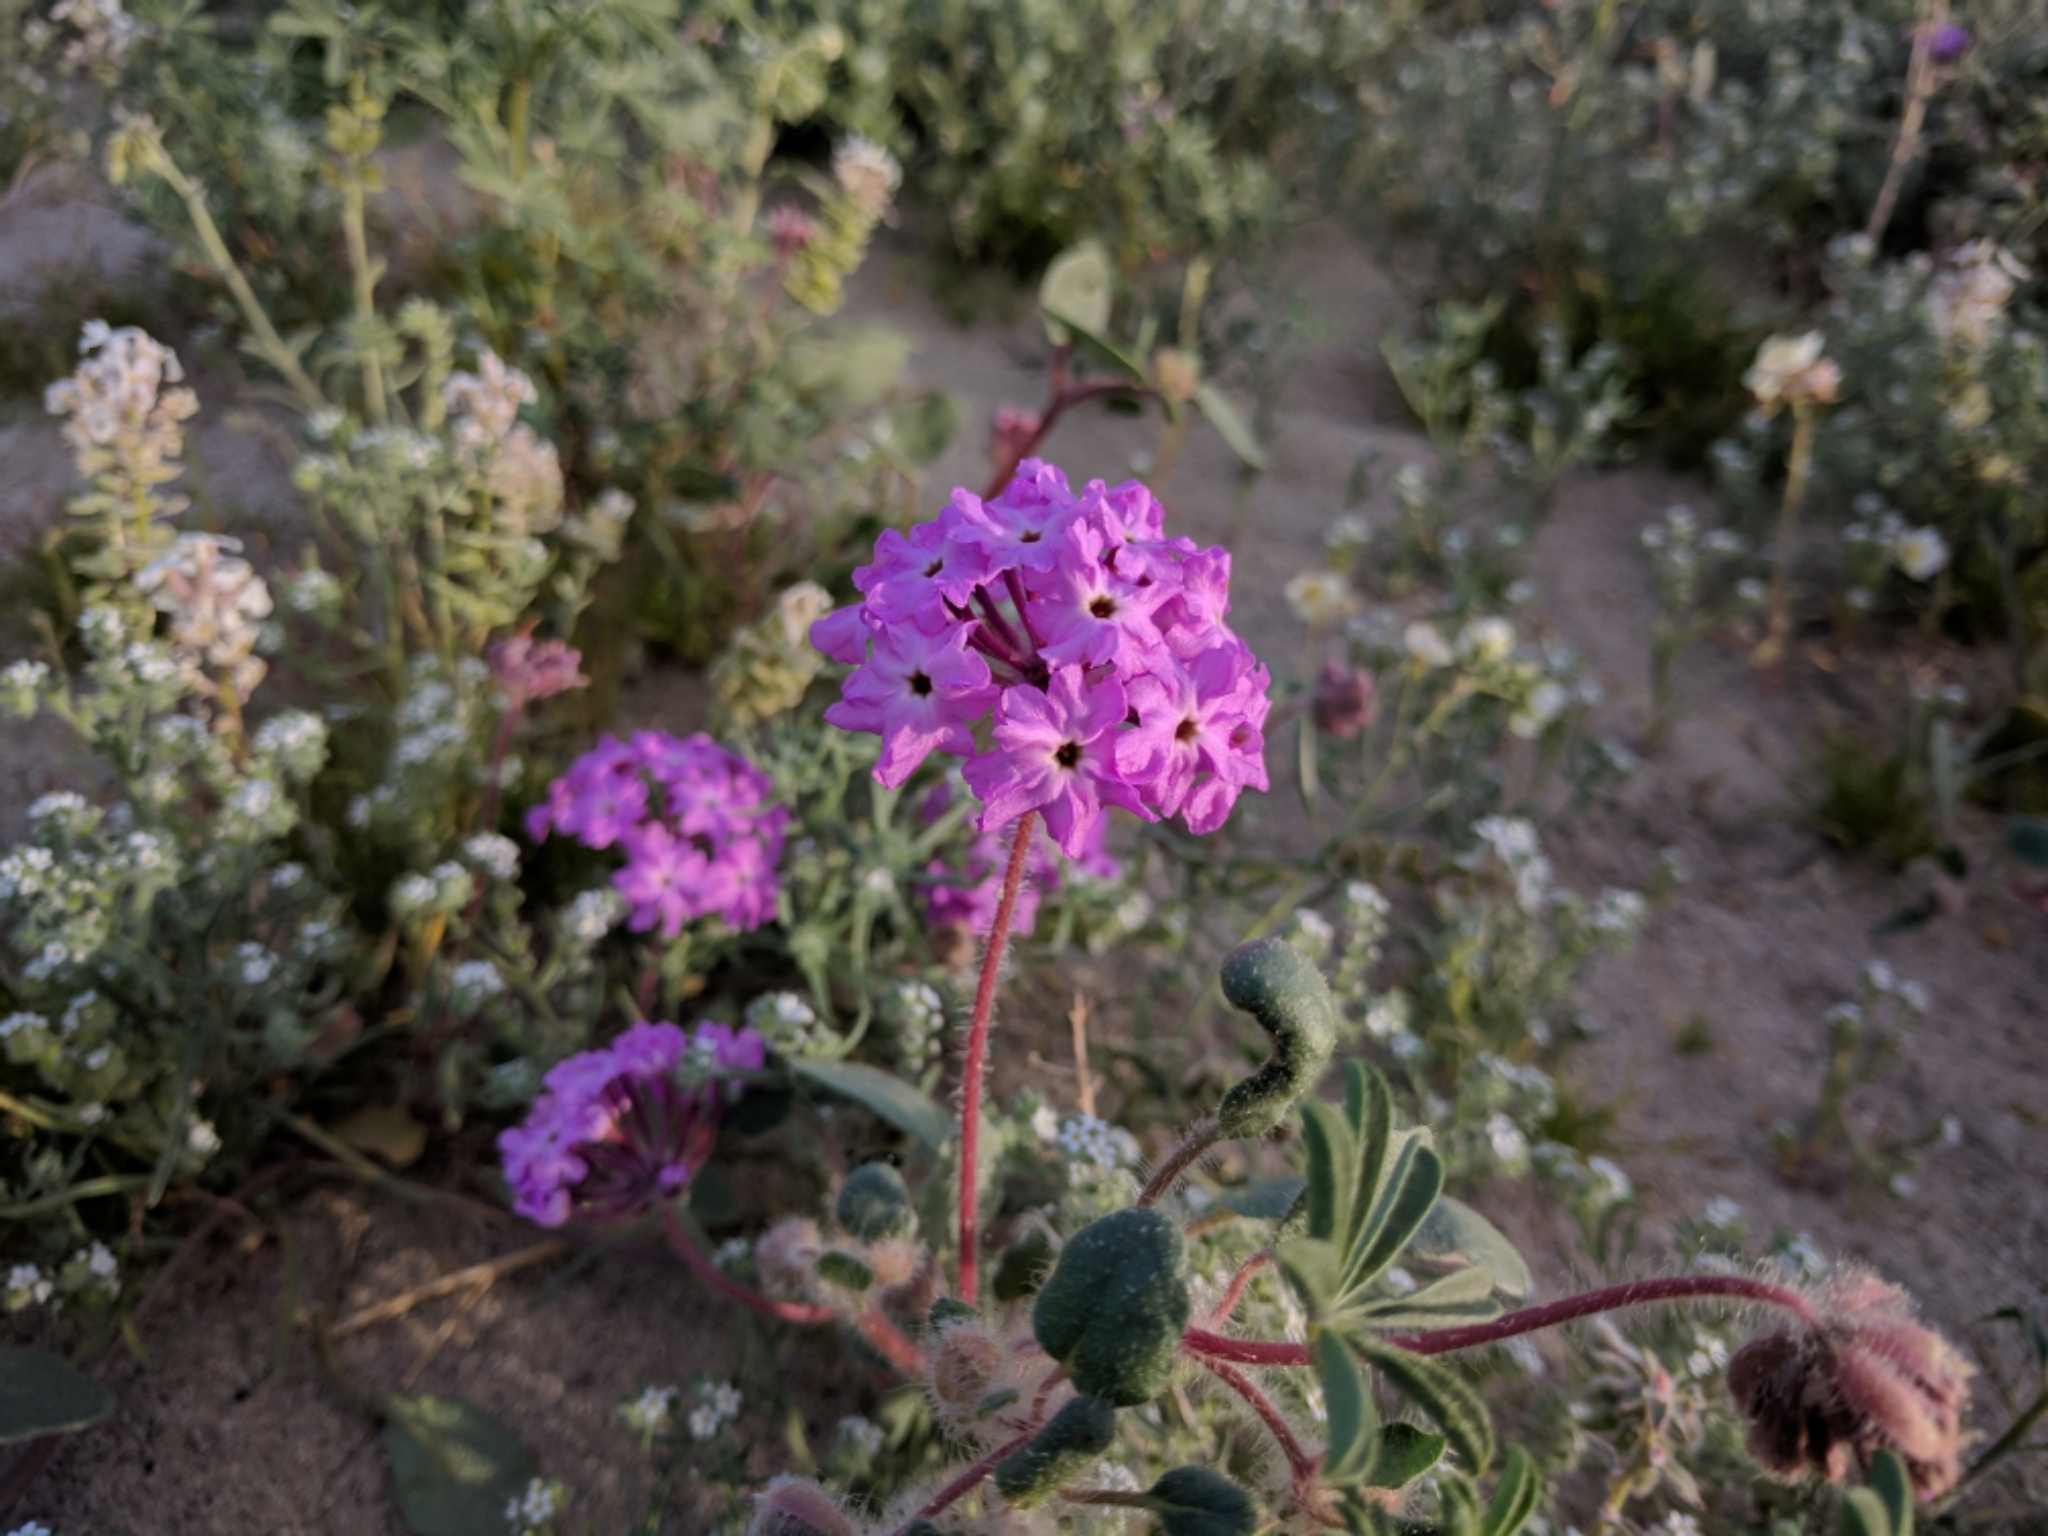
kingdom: Plantae
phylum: Tracheophyta
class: Magnoliopsida
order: Caryophyllales
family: Nyctaginaceae
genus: Abronia
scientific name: Abronia villosa
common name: Desert sand-verbena
